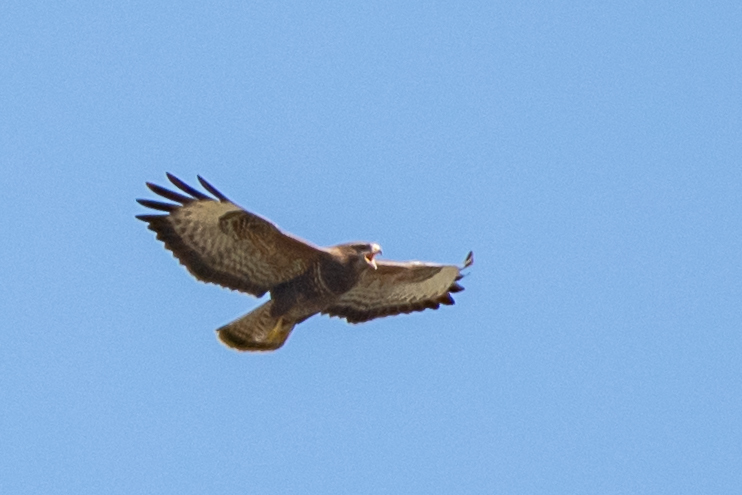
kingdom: Animalia
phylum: Chordata
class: Aves
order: Accipitriformes
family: Accipitridae
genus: Buteo
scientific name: Buteo buteo
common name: Common buzzard
